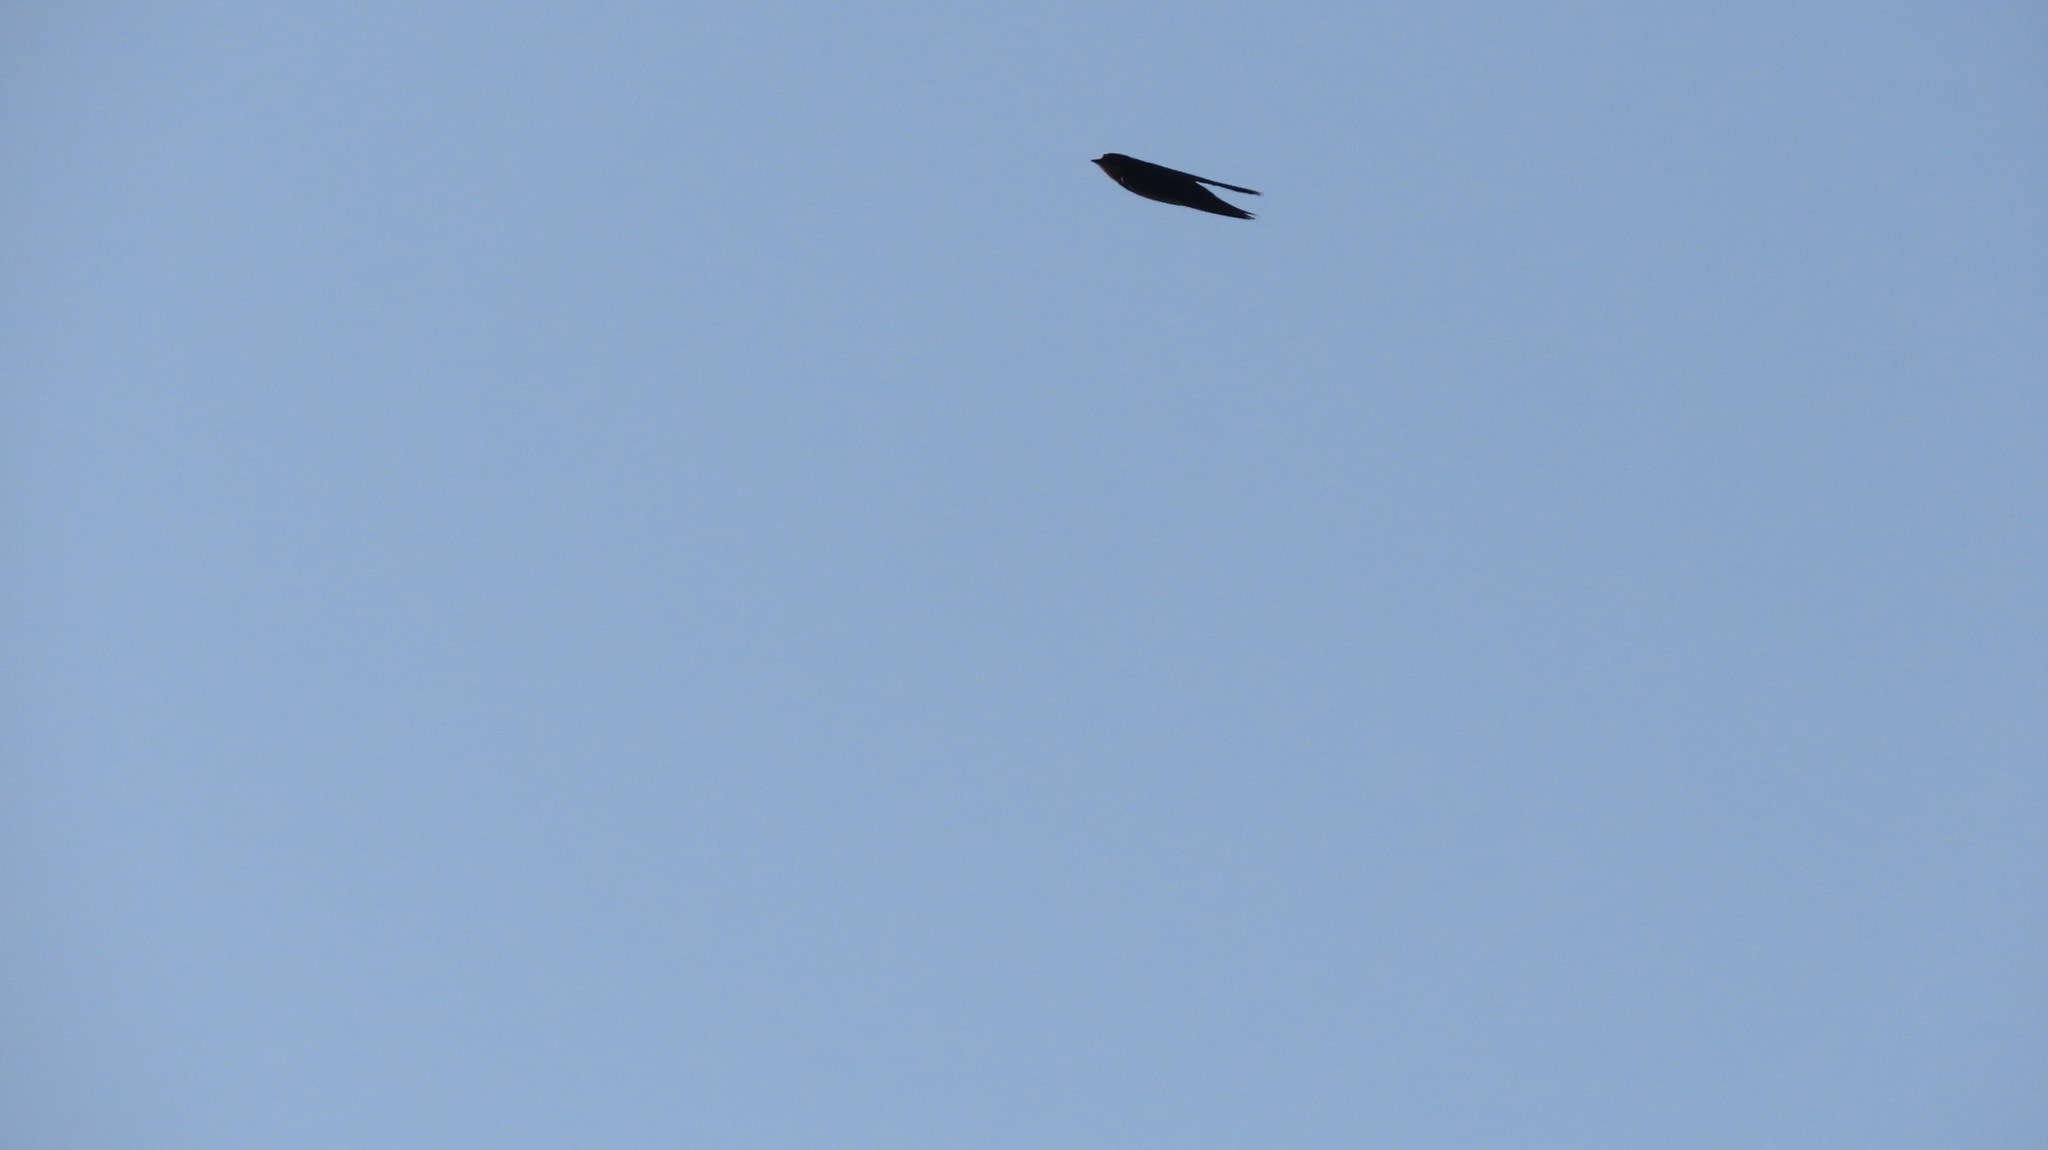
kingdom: Animalia
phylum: Chordata
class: Aves
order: Passeriformes
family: Hirundinidae
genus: Hirundo
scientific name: Hirundo rustica
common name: Barn swallow
